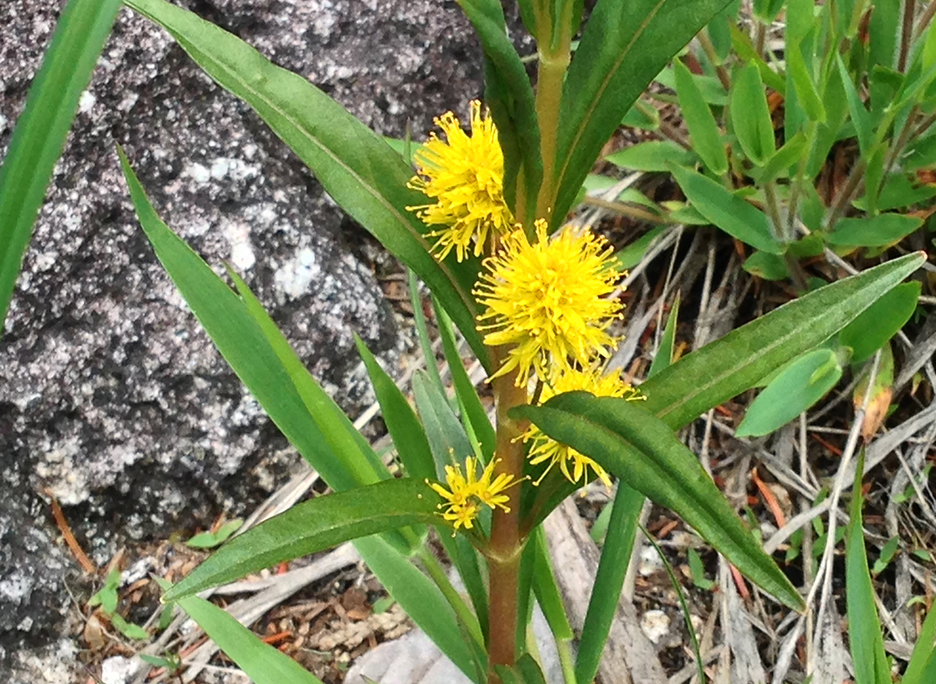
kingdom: Plantae
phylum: Tracheophyta
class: Magnoliopsida
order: Ericales
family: Primulaceae
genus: Lysimachia
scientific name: Lysimachia thyrsiflora
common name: Tufted loosestrife
